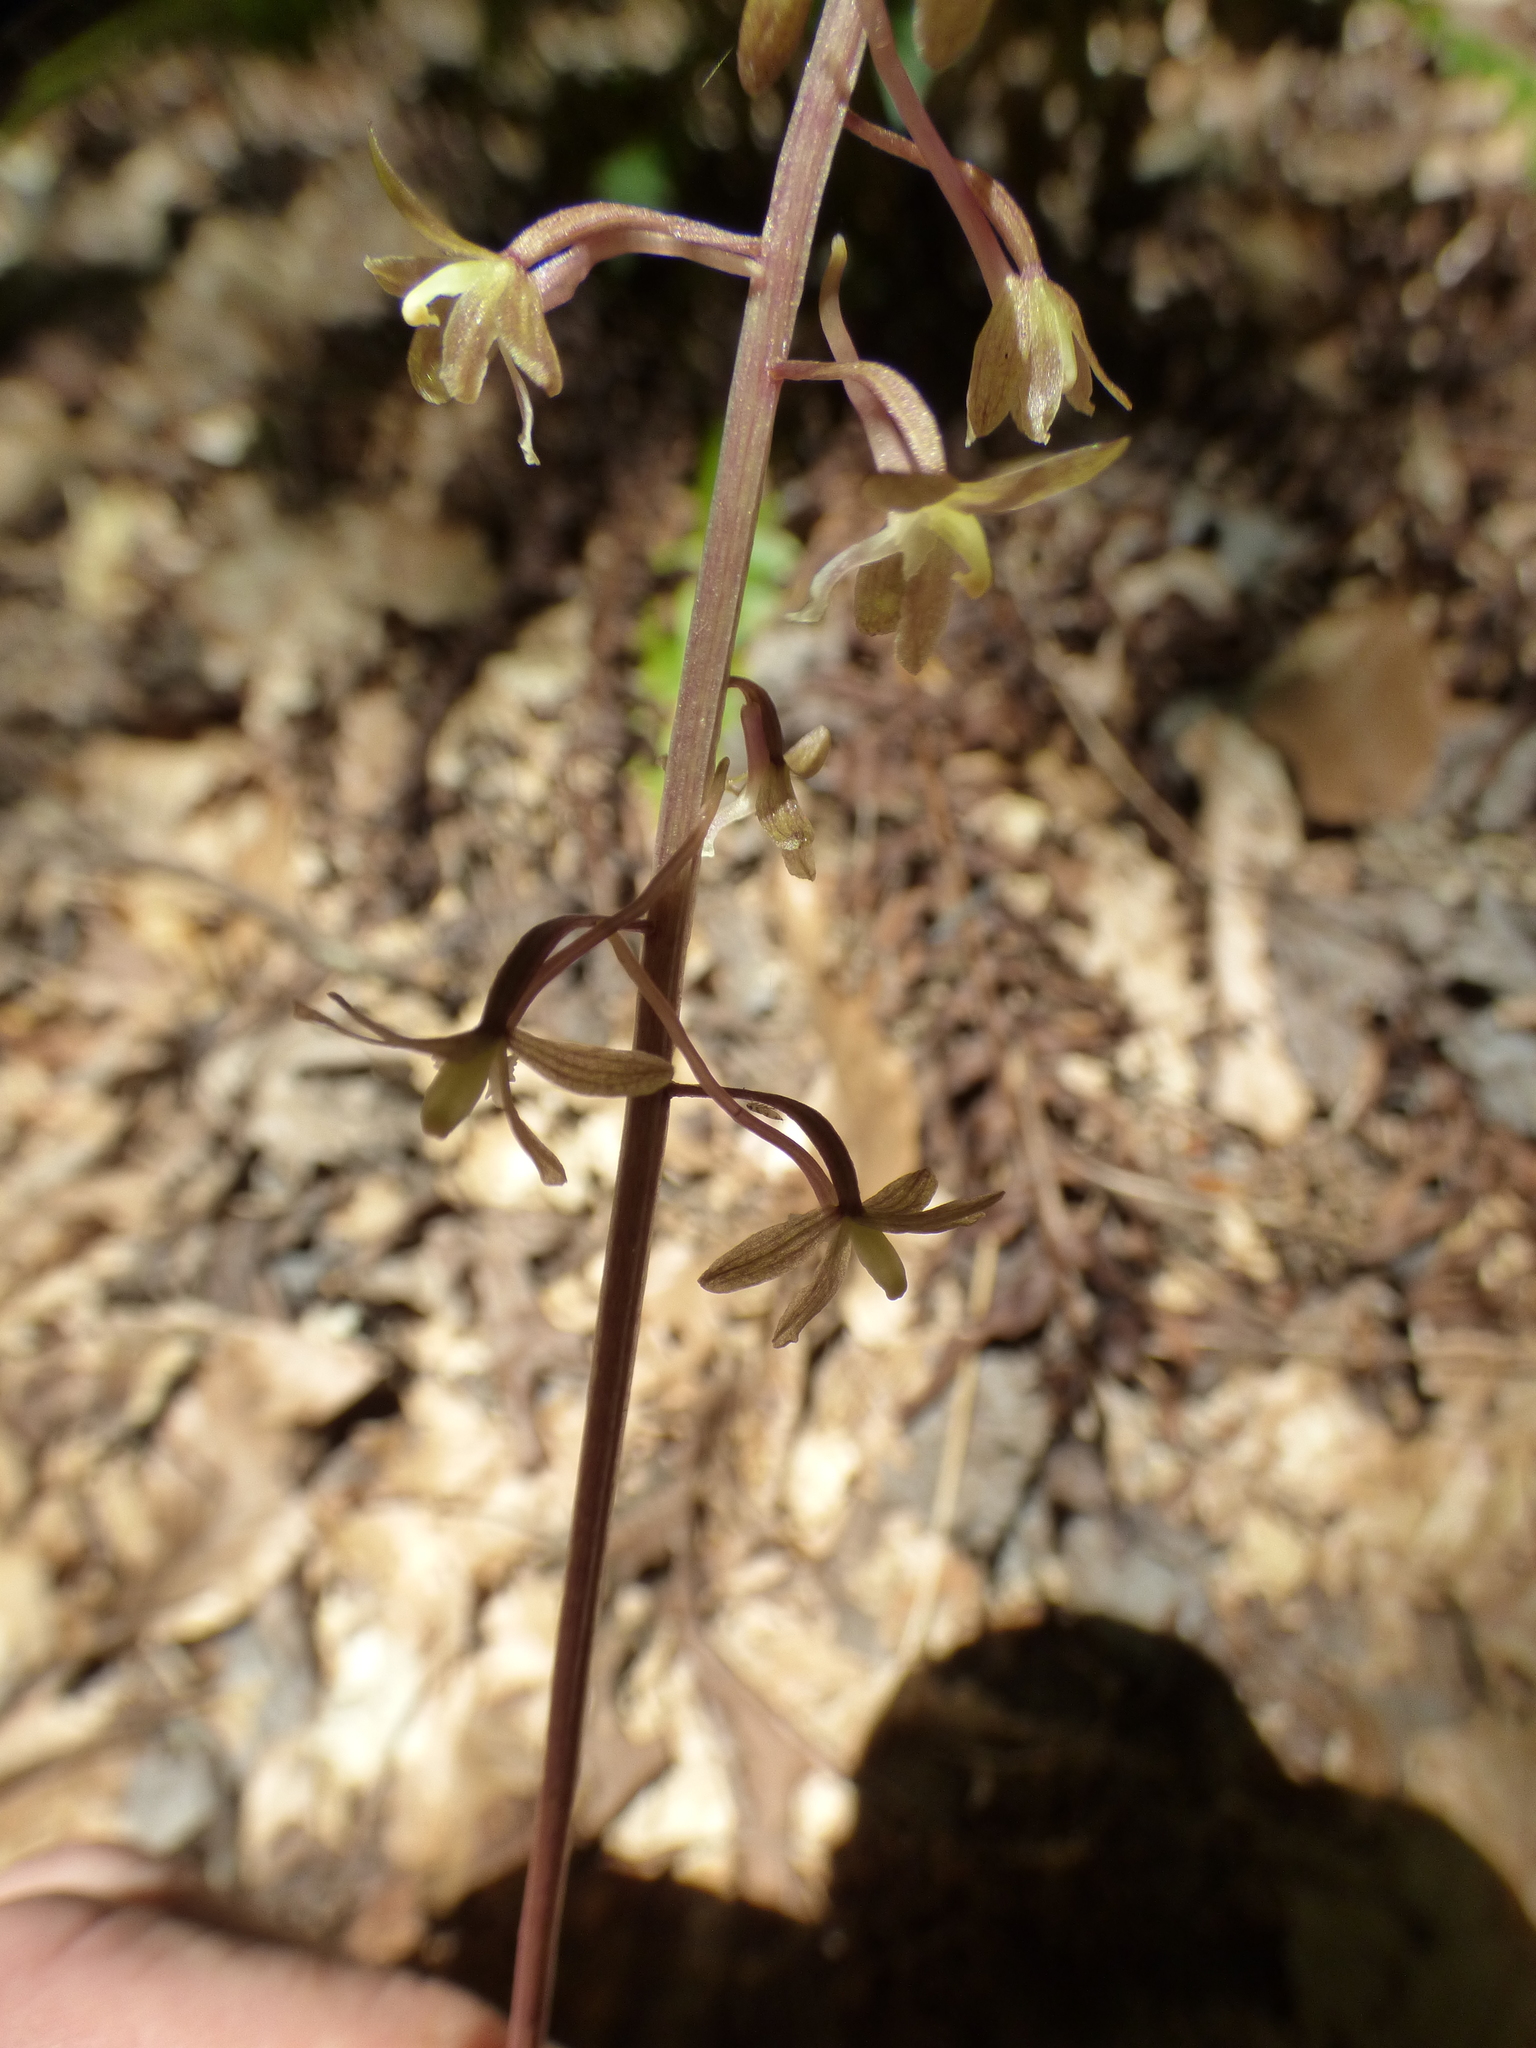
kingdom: Plantae
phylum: Tracheophyta
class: Liliopsida
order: Asparagales
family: Orchidaceae
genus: Tipularia
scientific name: Tipularia discolor
